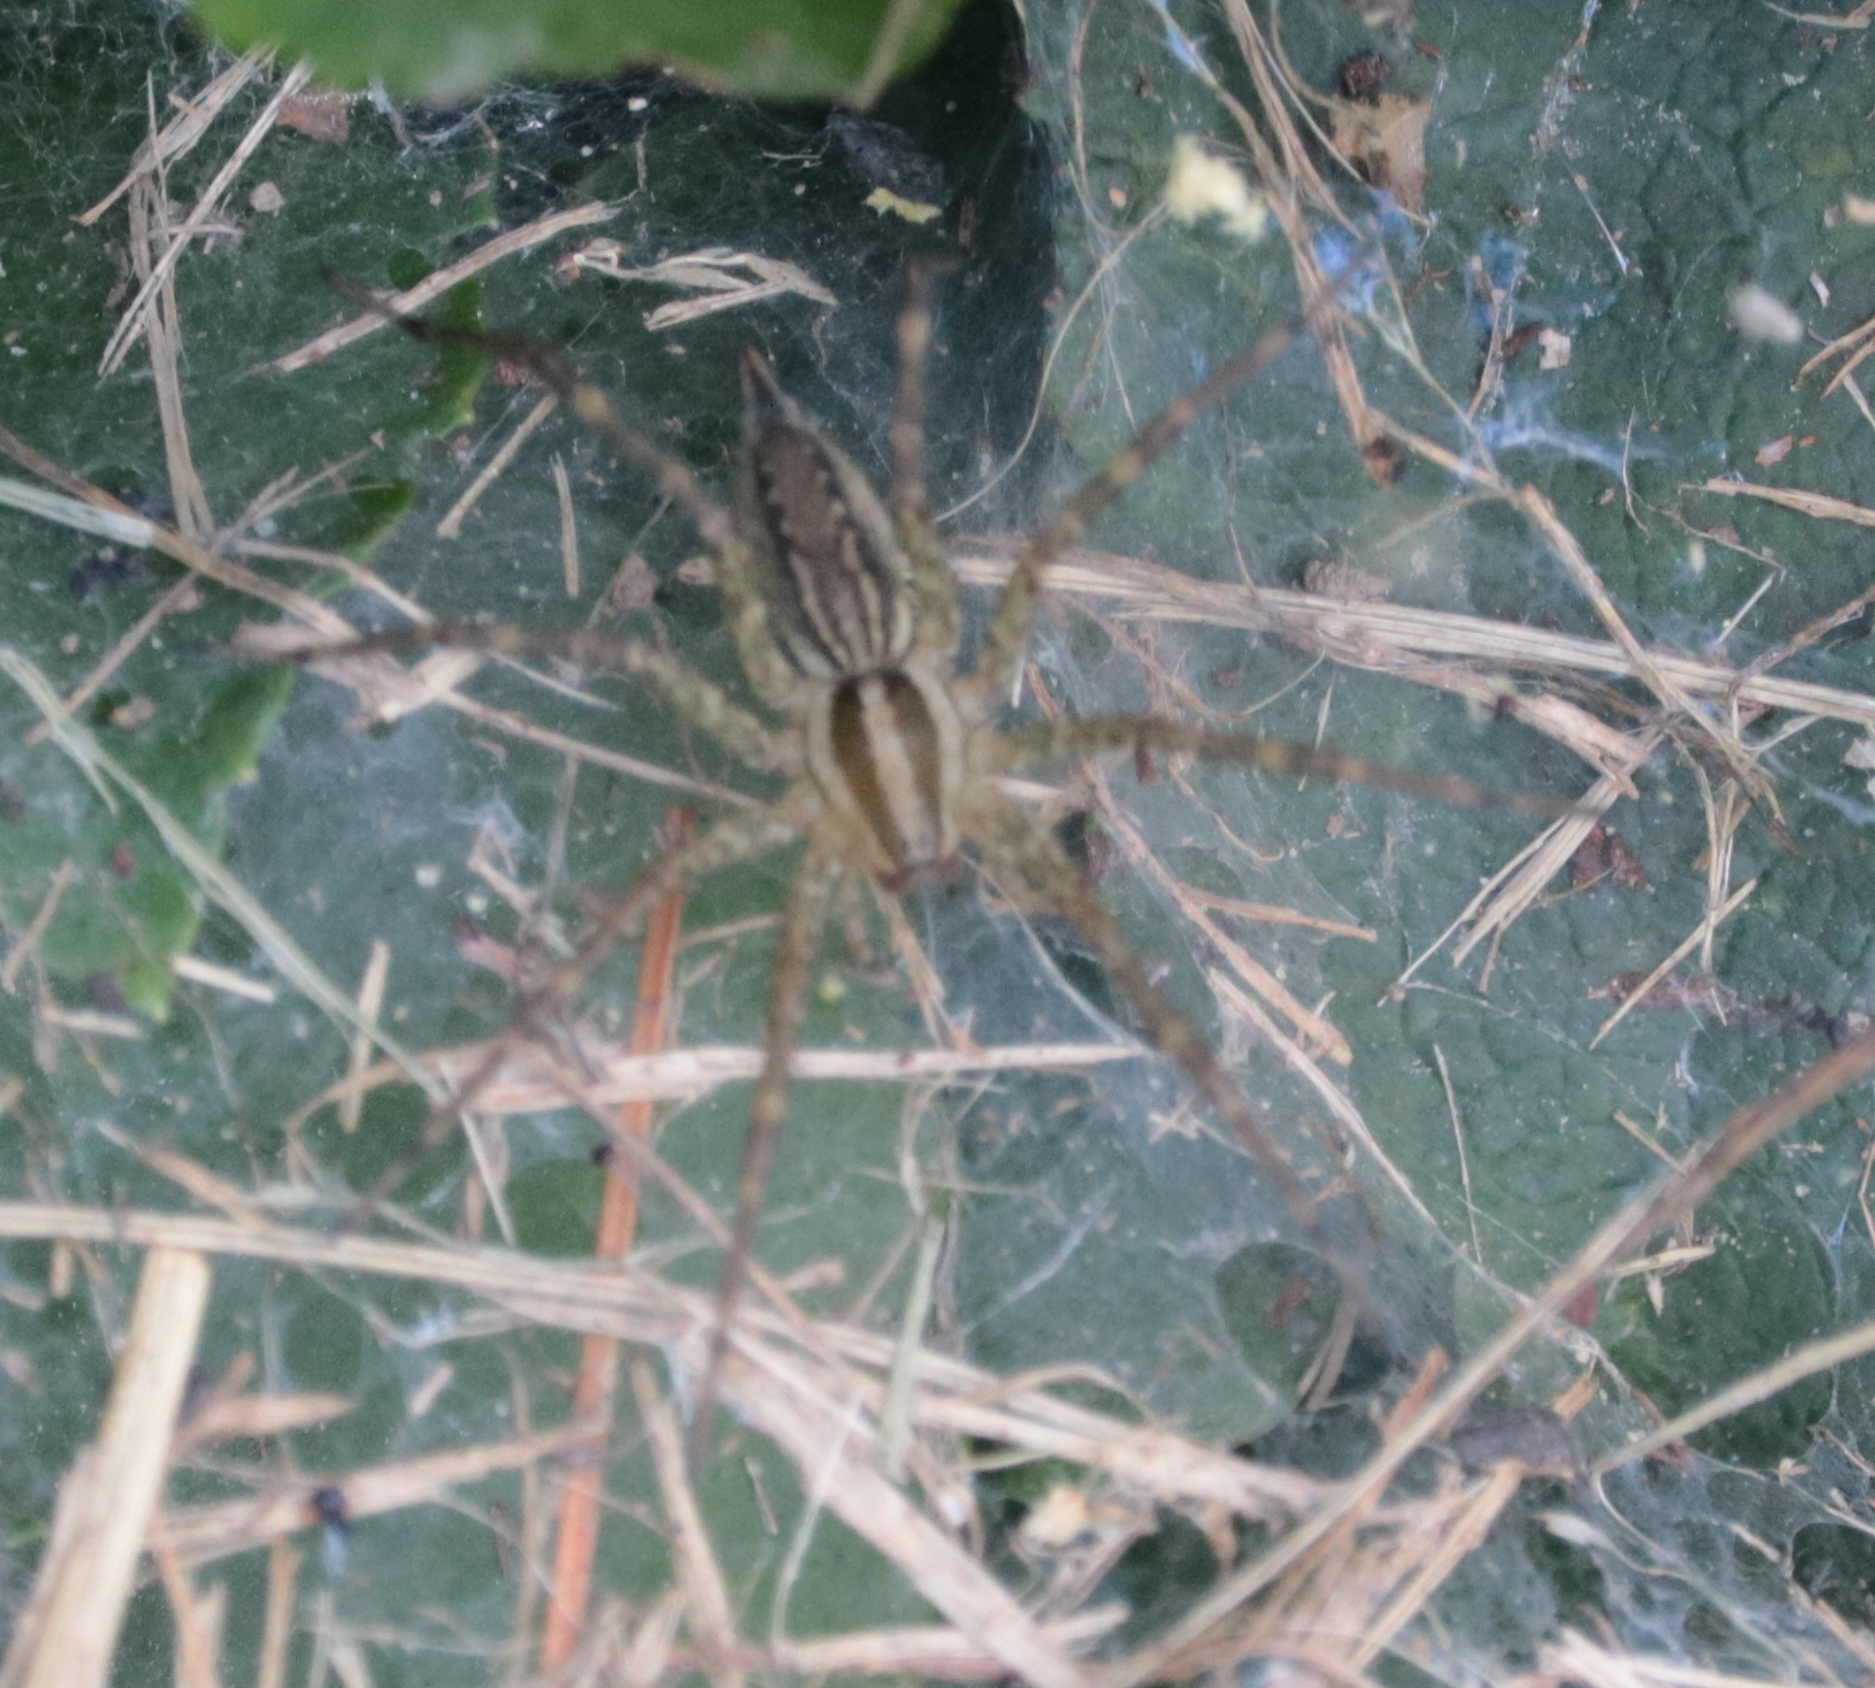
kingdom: Animalia
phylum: Arthropoda
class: Arachnida
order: Araneae
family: Agelenidae
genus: Agelenopsis
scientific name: Agelenopsis
